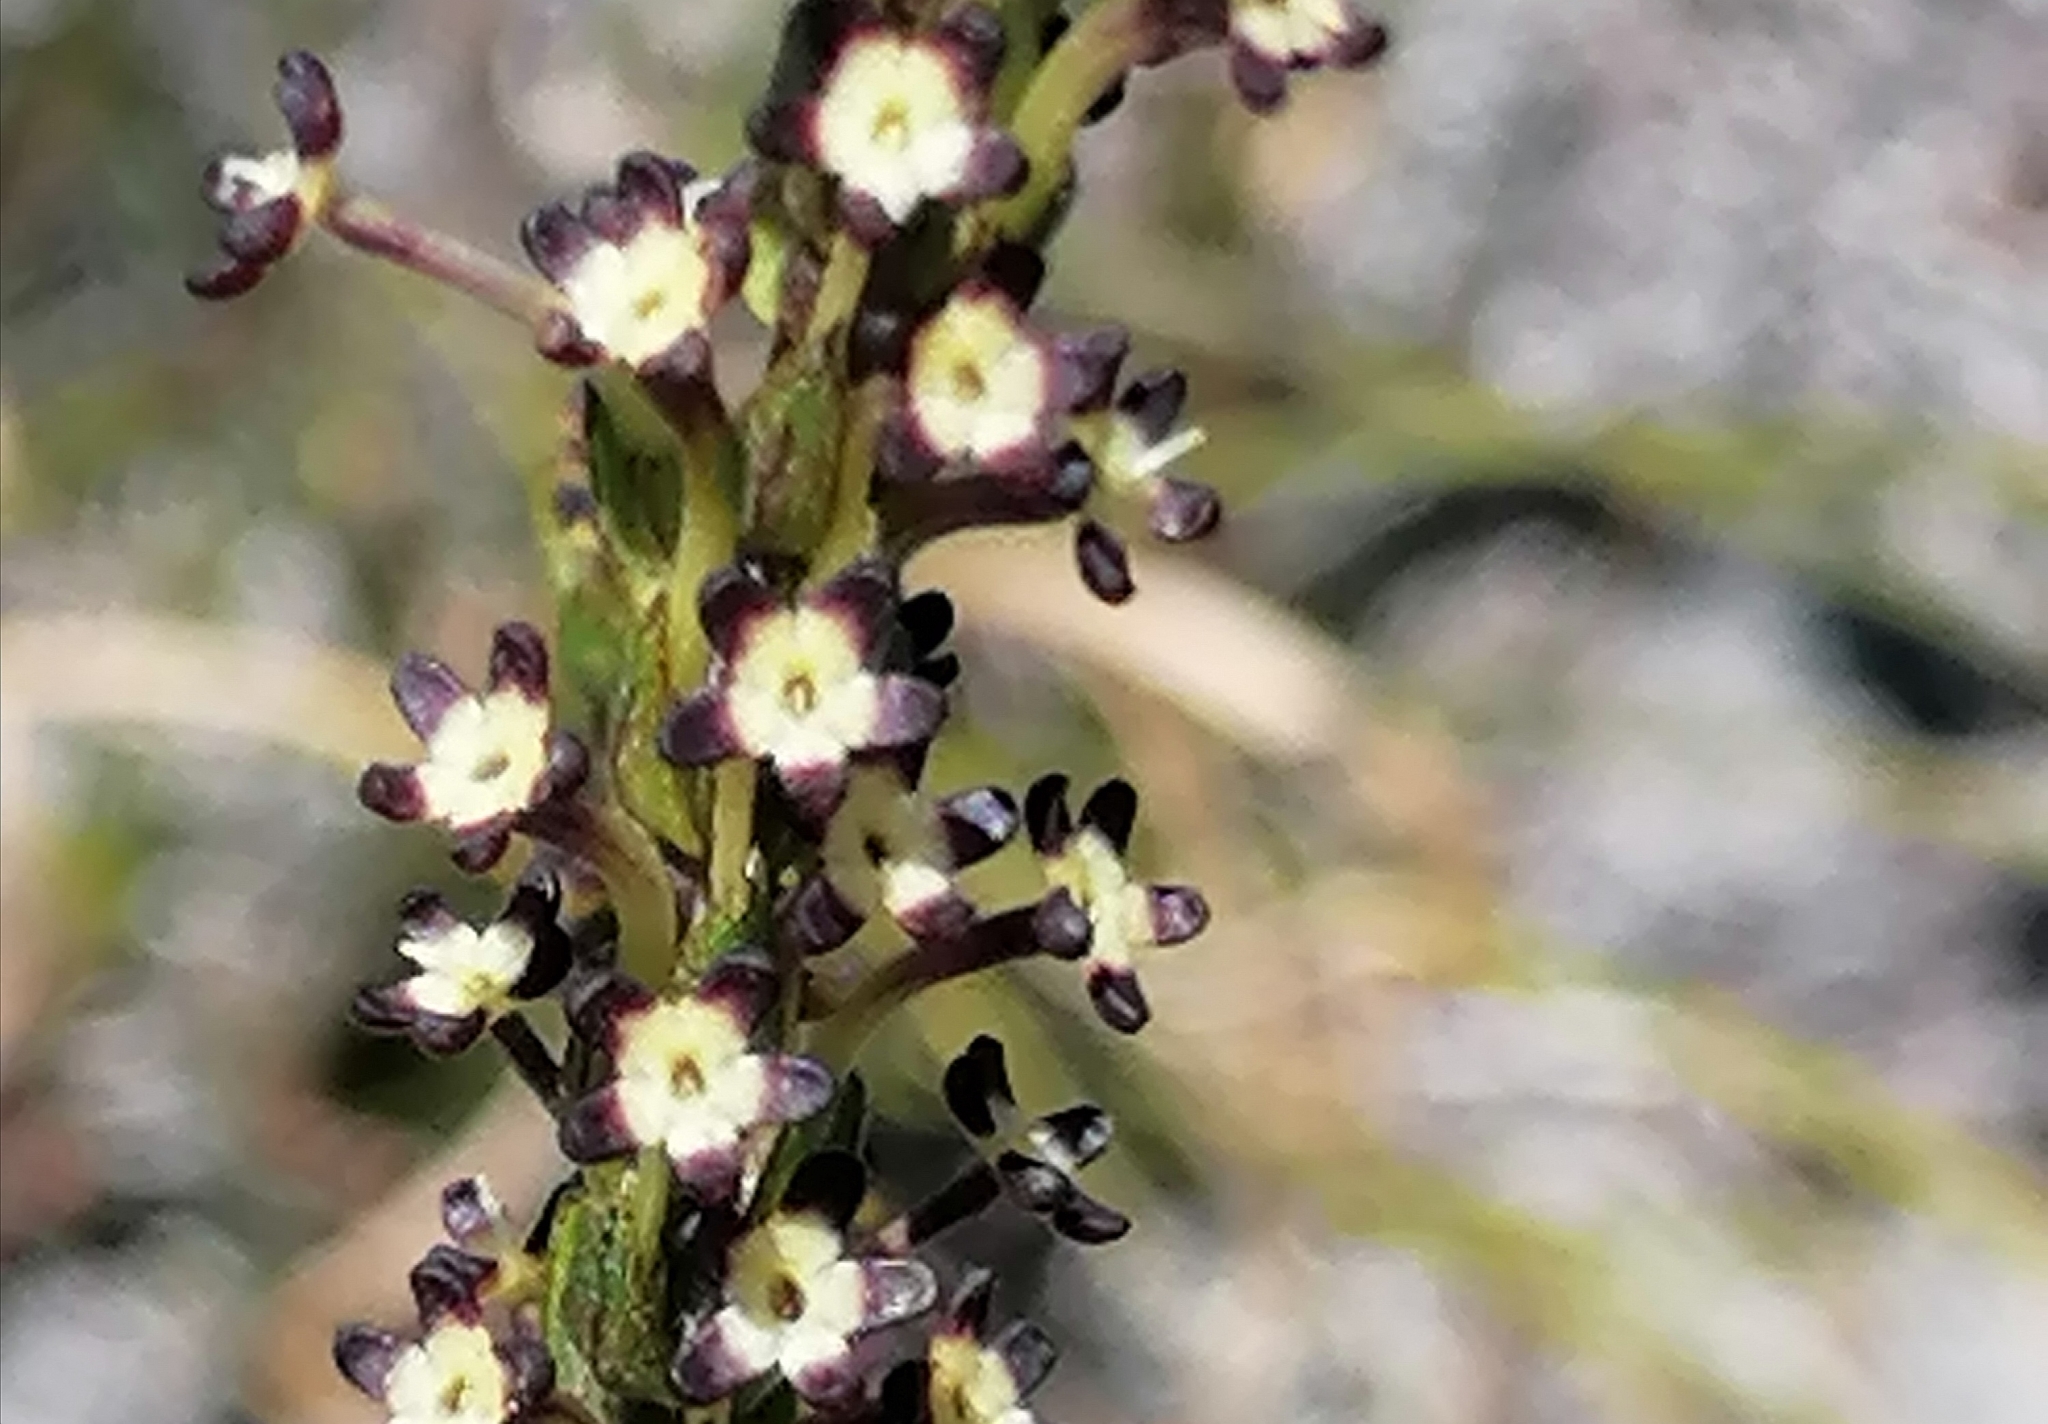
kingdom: Plantae
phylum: Tracheophyta
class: Magnoliopsida
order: Lamiales
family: Scrophulariaceae
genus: Microdon
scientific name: Microdon dubius
